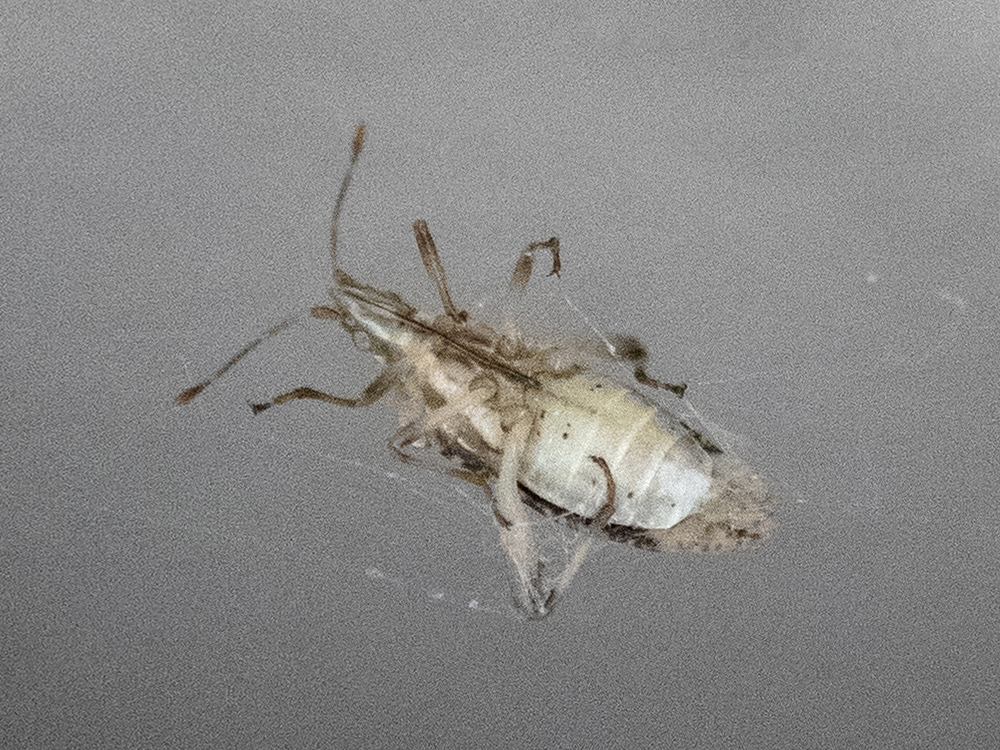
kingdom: Animalia
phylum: Arthropoda
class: Insecta
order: Hemiptera
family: Rhopalidae
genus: Harmostes
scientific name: Harmostes fraterculus
